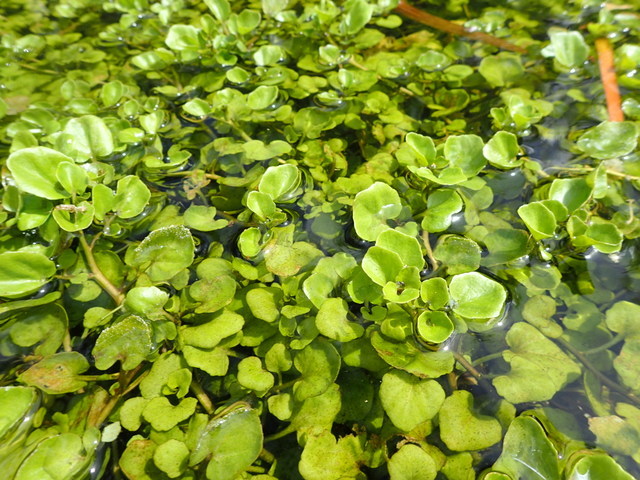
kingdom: Plantae
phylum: Tracheophyta
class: Magnoliopsida
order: Brassicales
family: Brassicaceae
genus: Nasturtium
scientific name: Nasturtium officinale
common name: Watercress
